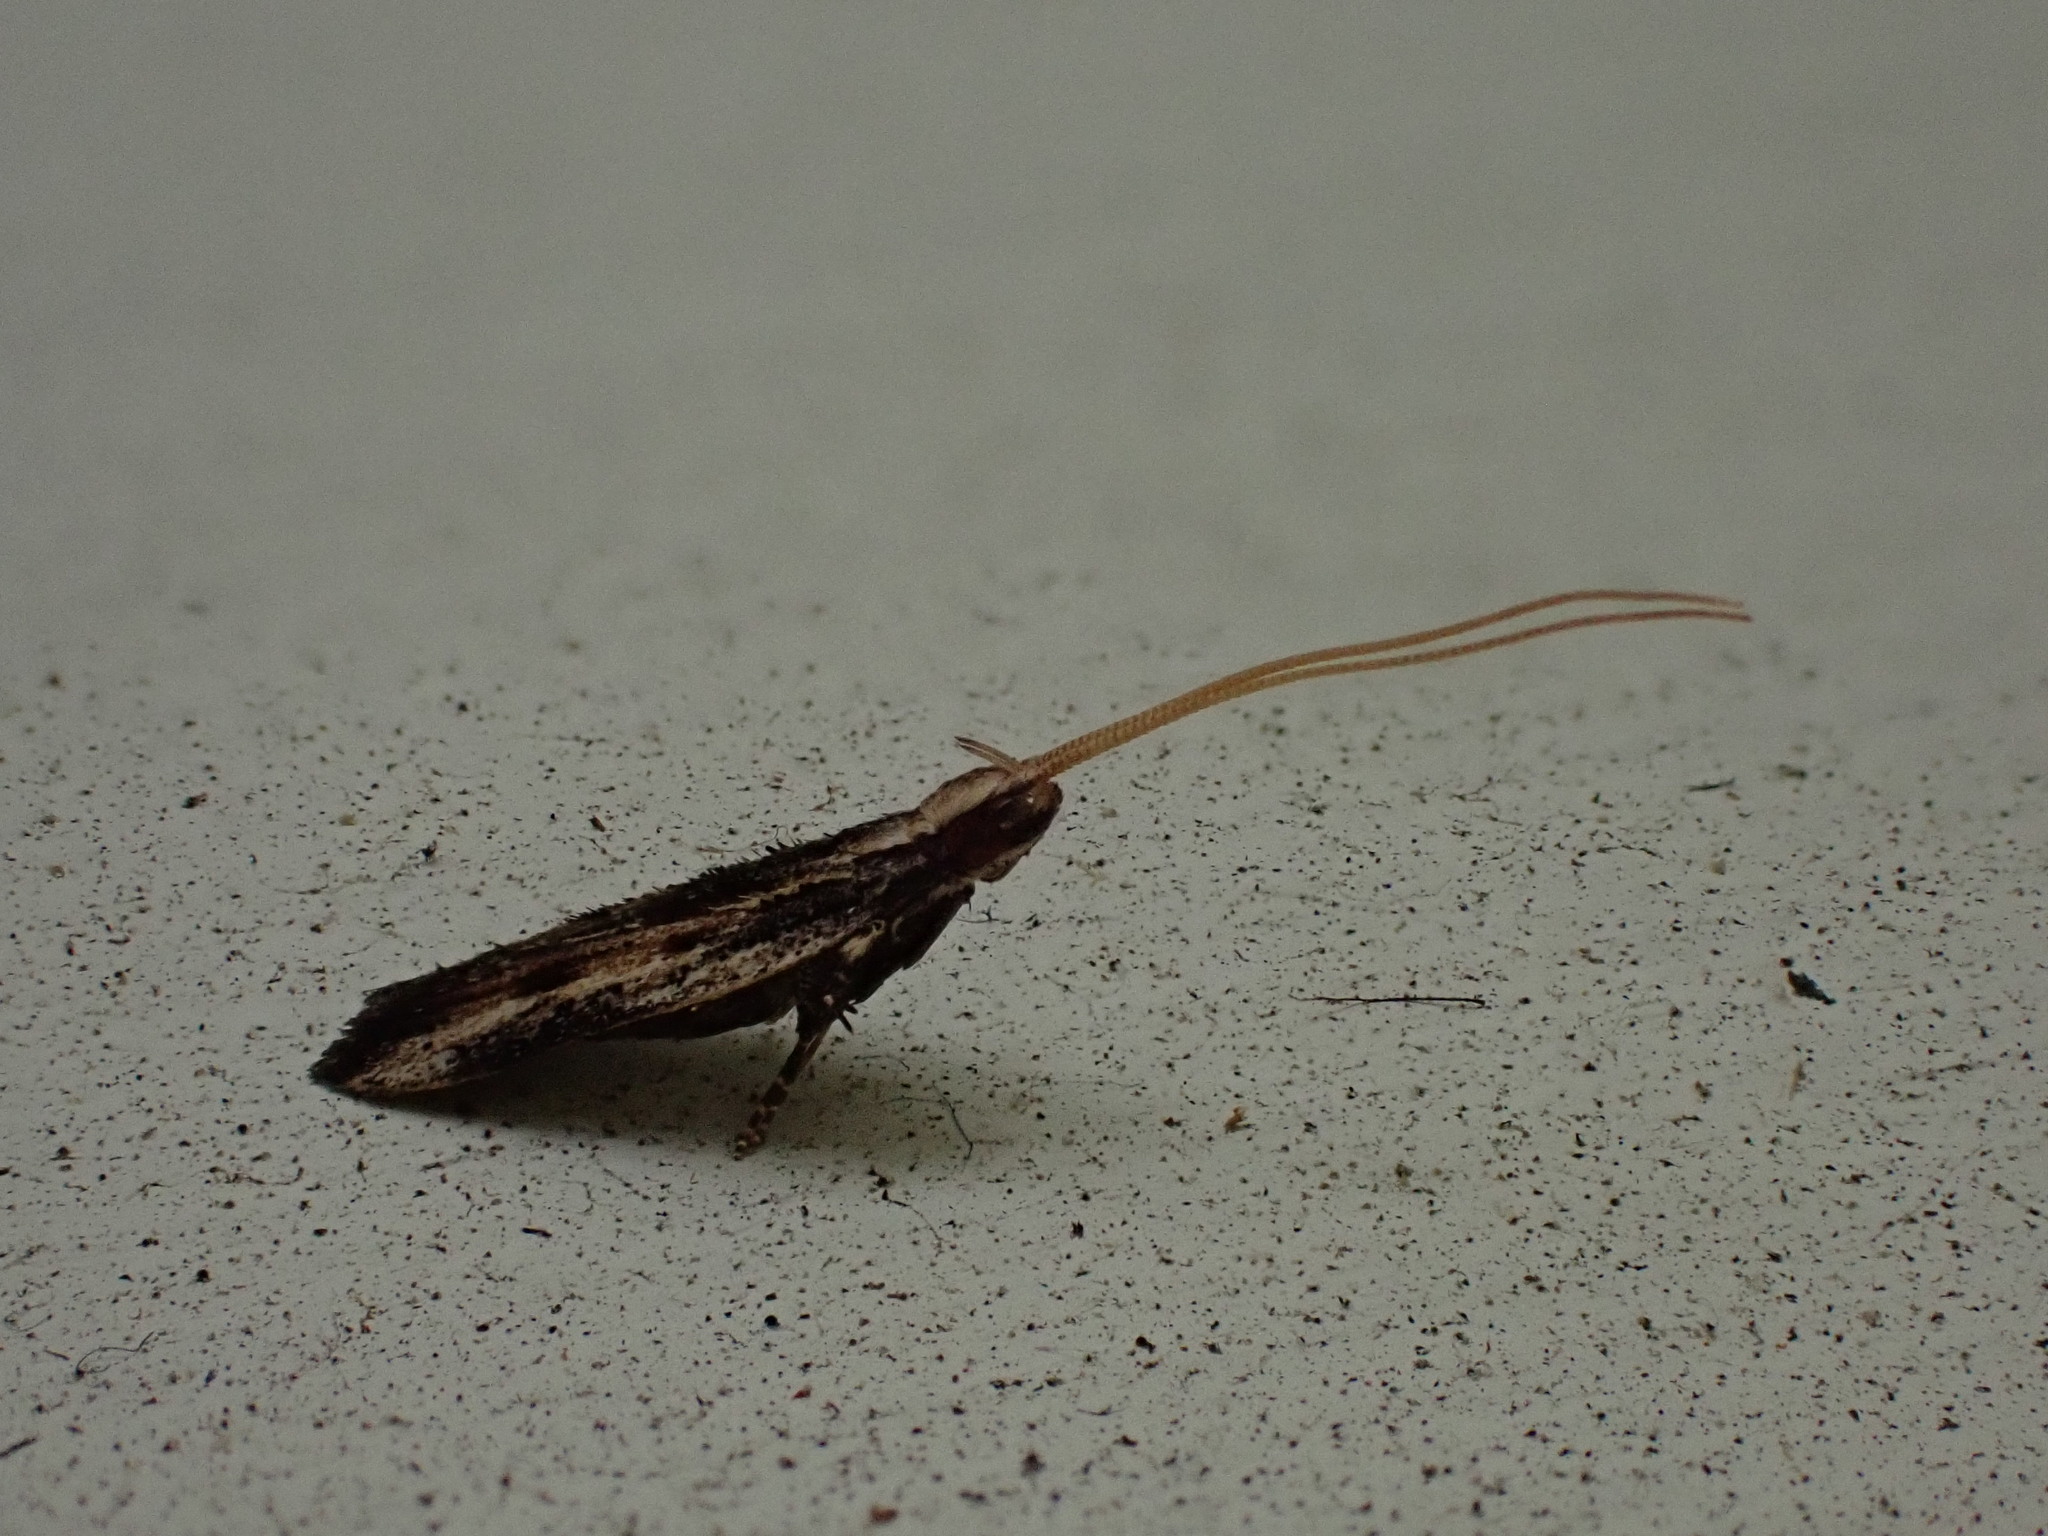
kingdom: Animalia
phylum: Arthropoda
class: Insecta
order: Lepidoptera
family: Lecithoceridae
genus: Sarisophora
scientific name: Sarisophora leucoscia
